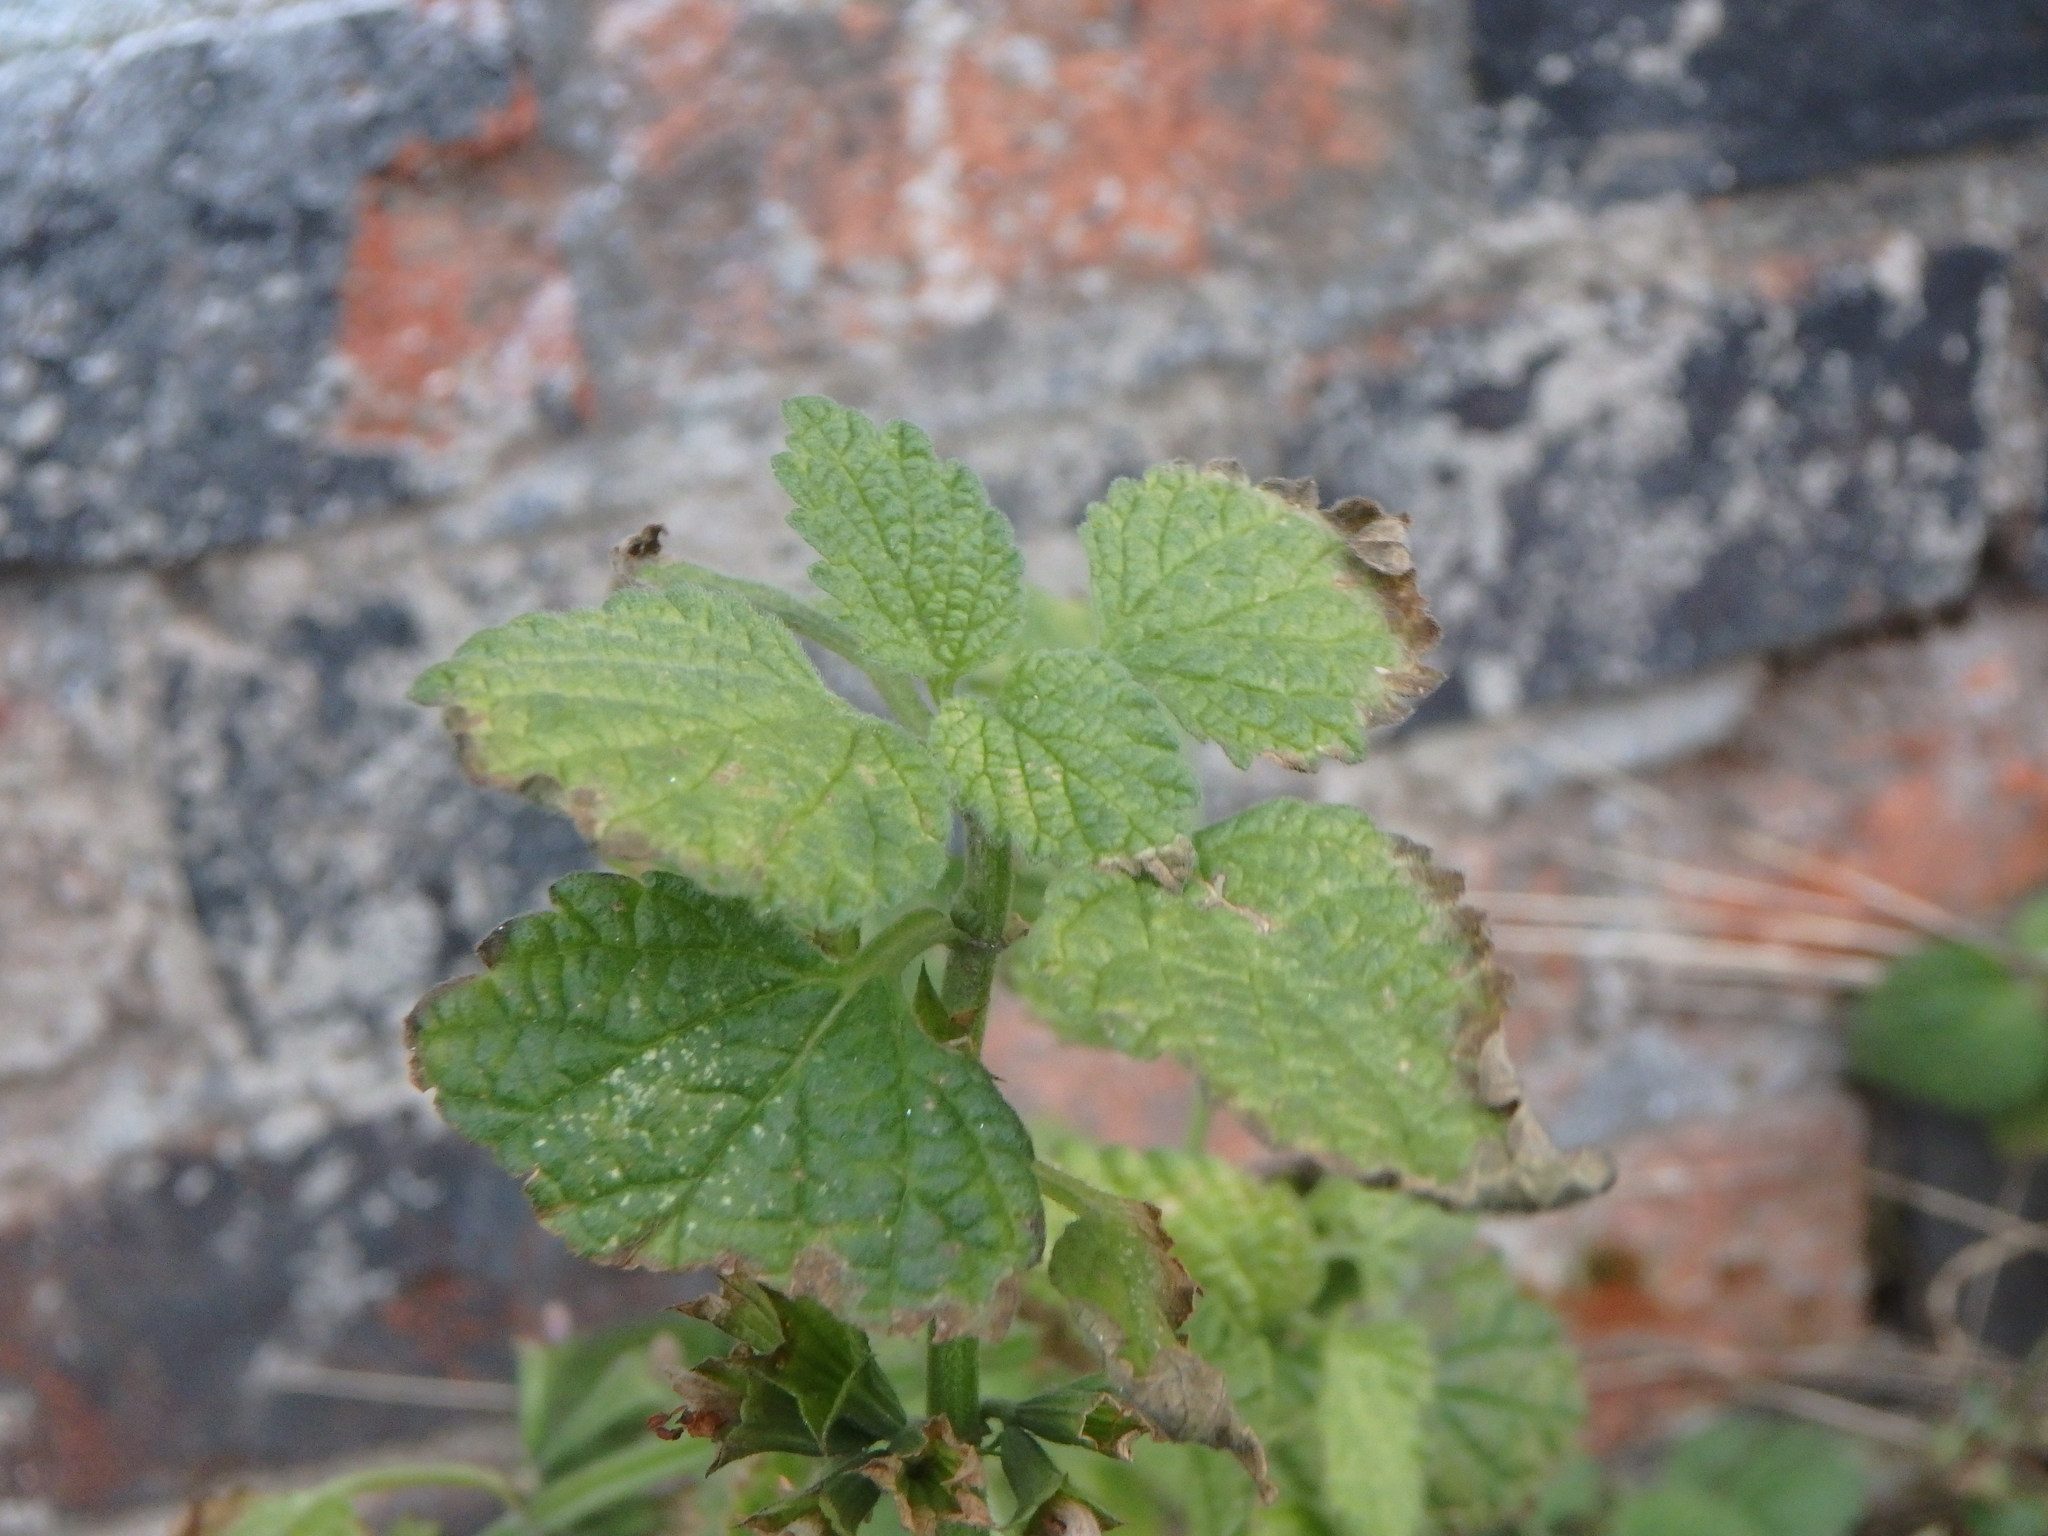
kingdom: Plantae
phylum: Tracheophyta
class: Magnoliopsida
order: Lamiales
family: Lamiaceae
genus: Ballota
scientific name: Ballota nigra
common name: Black horehound
